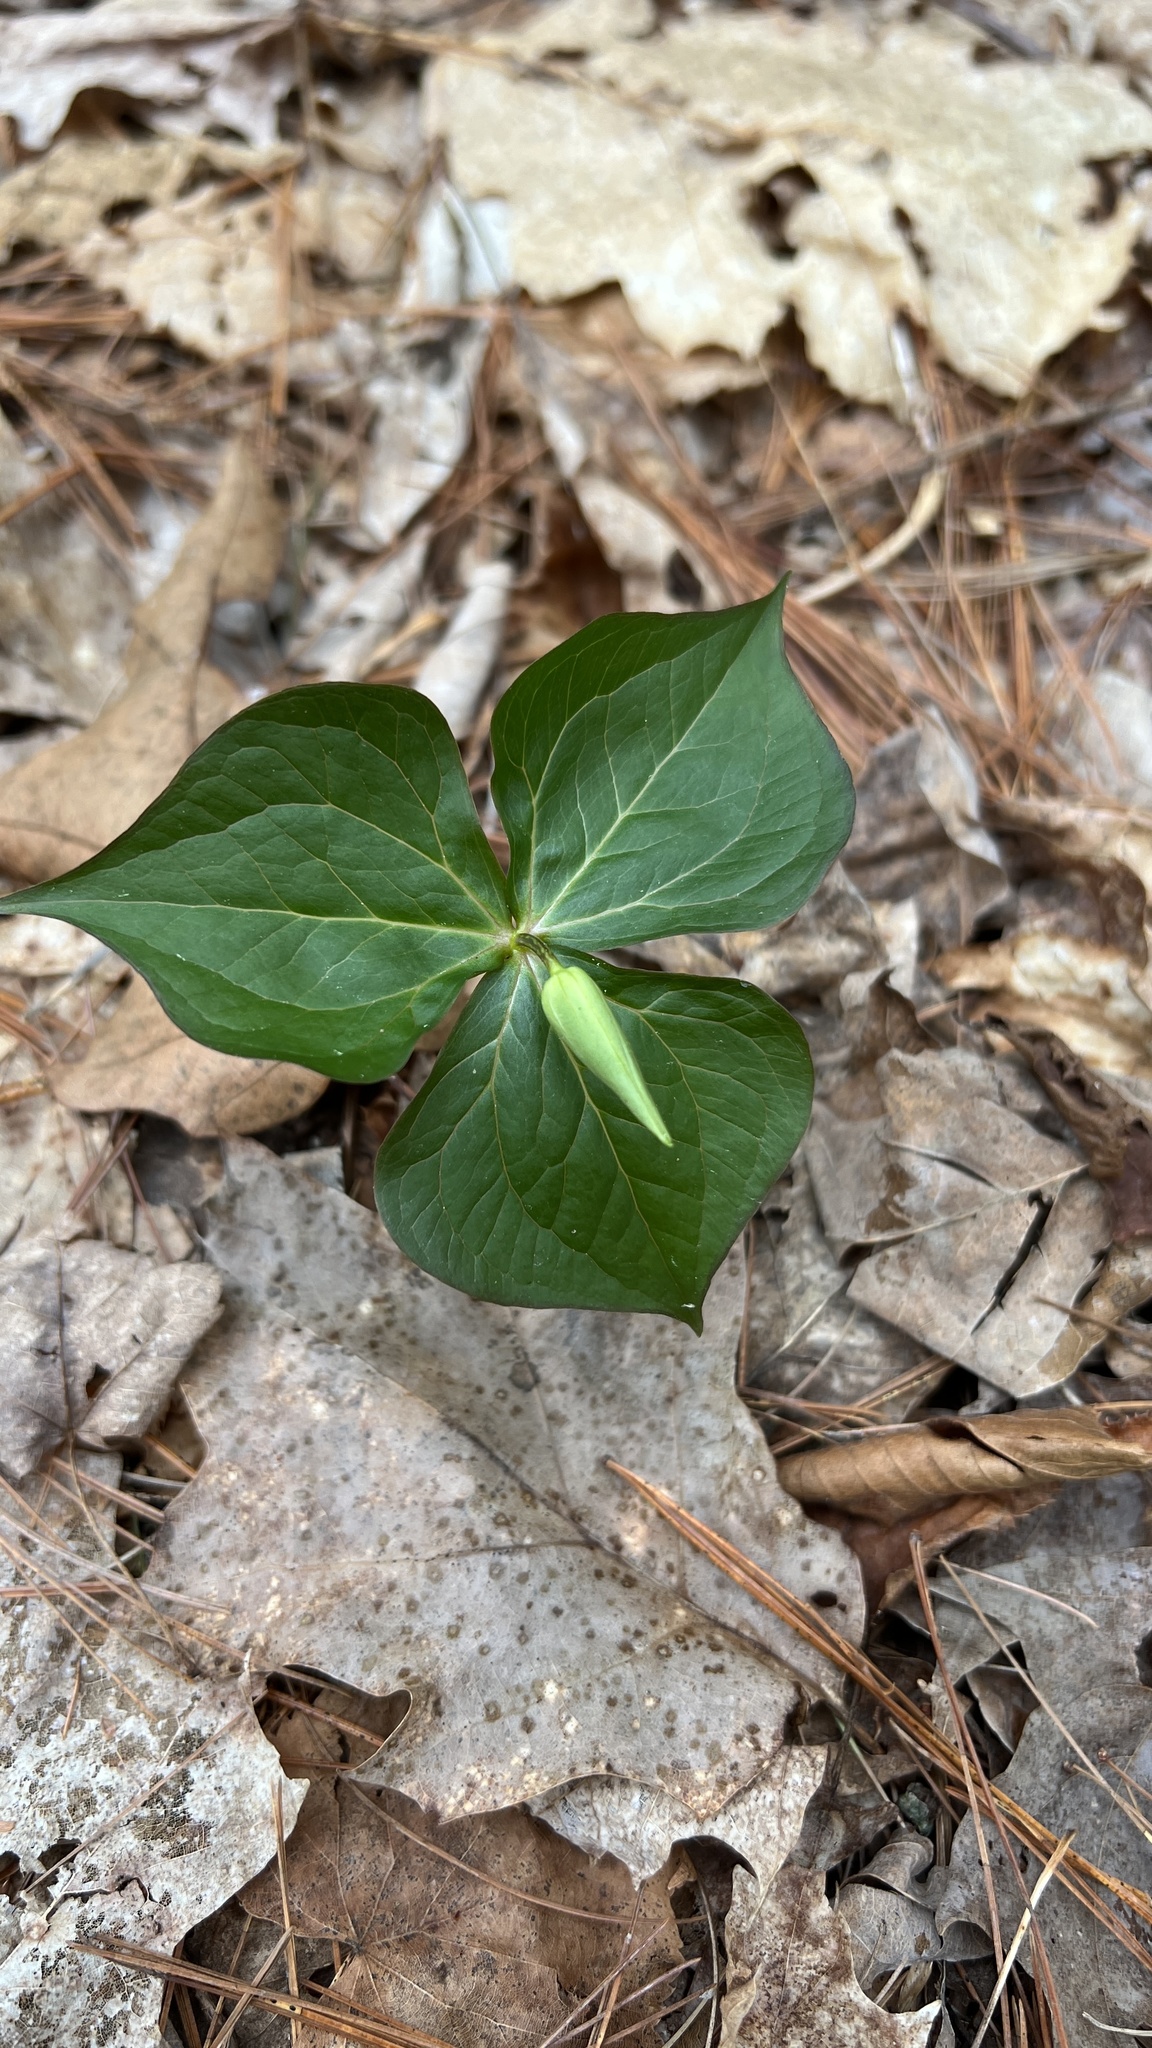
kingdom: Plantae
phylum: Tracheophyta
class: Liliopsida
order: Liliales
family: Melanthiaceae
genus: Trillium
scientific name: Trillium erectum
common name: Purple trillium
